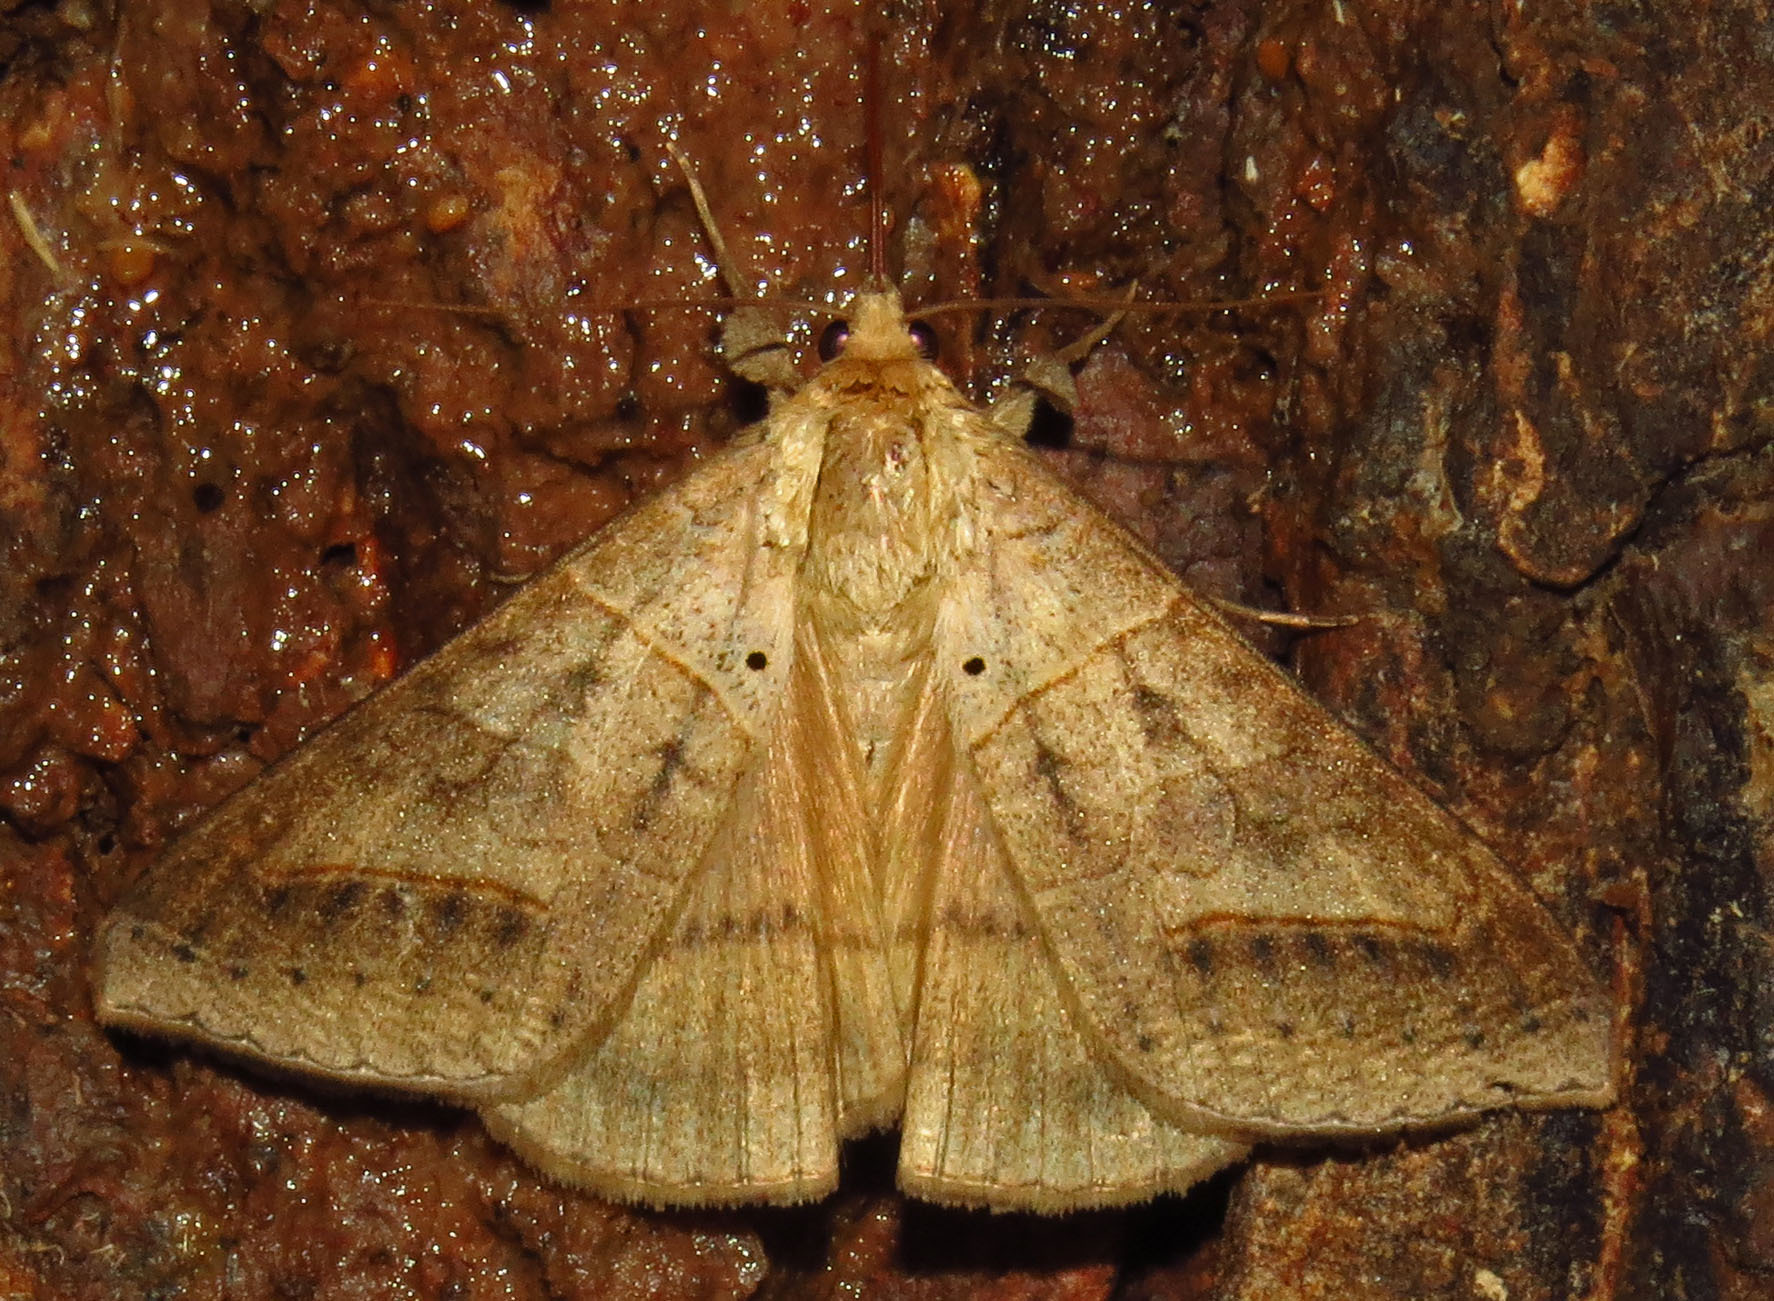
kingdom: Animalia
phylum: Arthropoda
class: Insecta
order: Lepidoptera
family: Erebidae
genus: Mocis
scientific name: Mocis marcida
